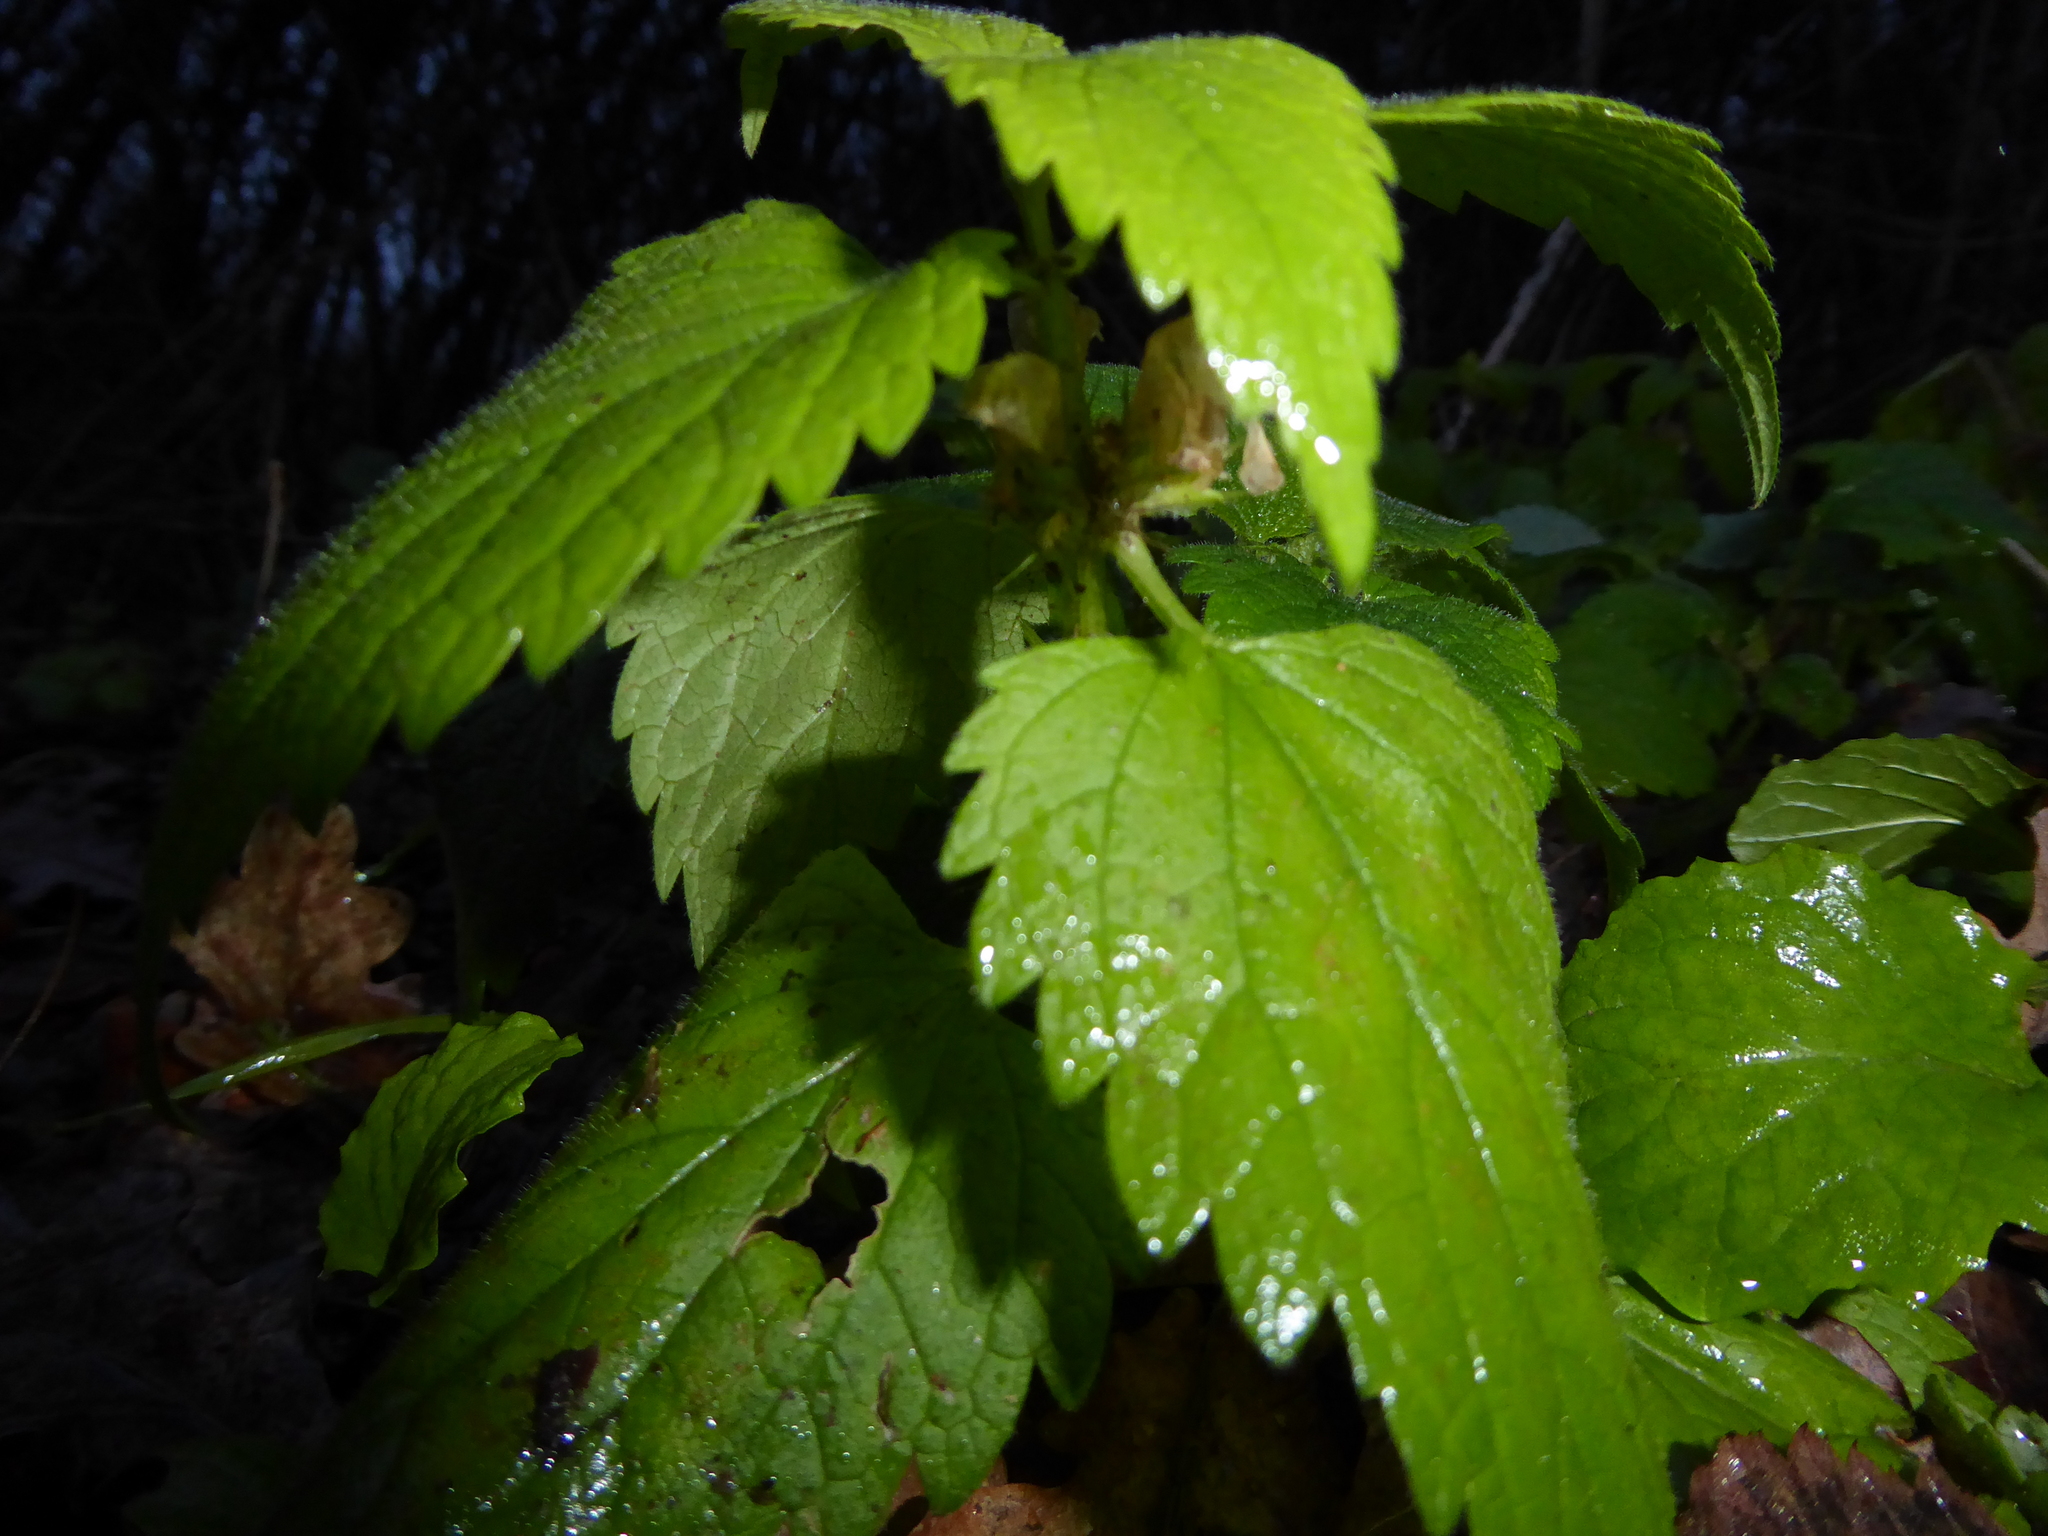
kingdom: Plantae
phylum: Tracheophyta
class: Magnoliopsida
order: Lamiales
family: Lamiaceae
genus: Lamium
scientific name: Lamium album
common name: White dead-nettle
